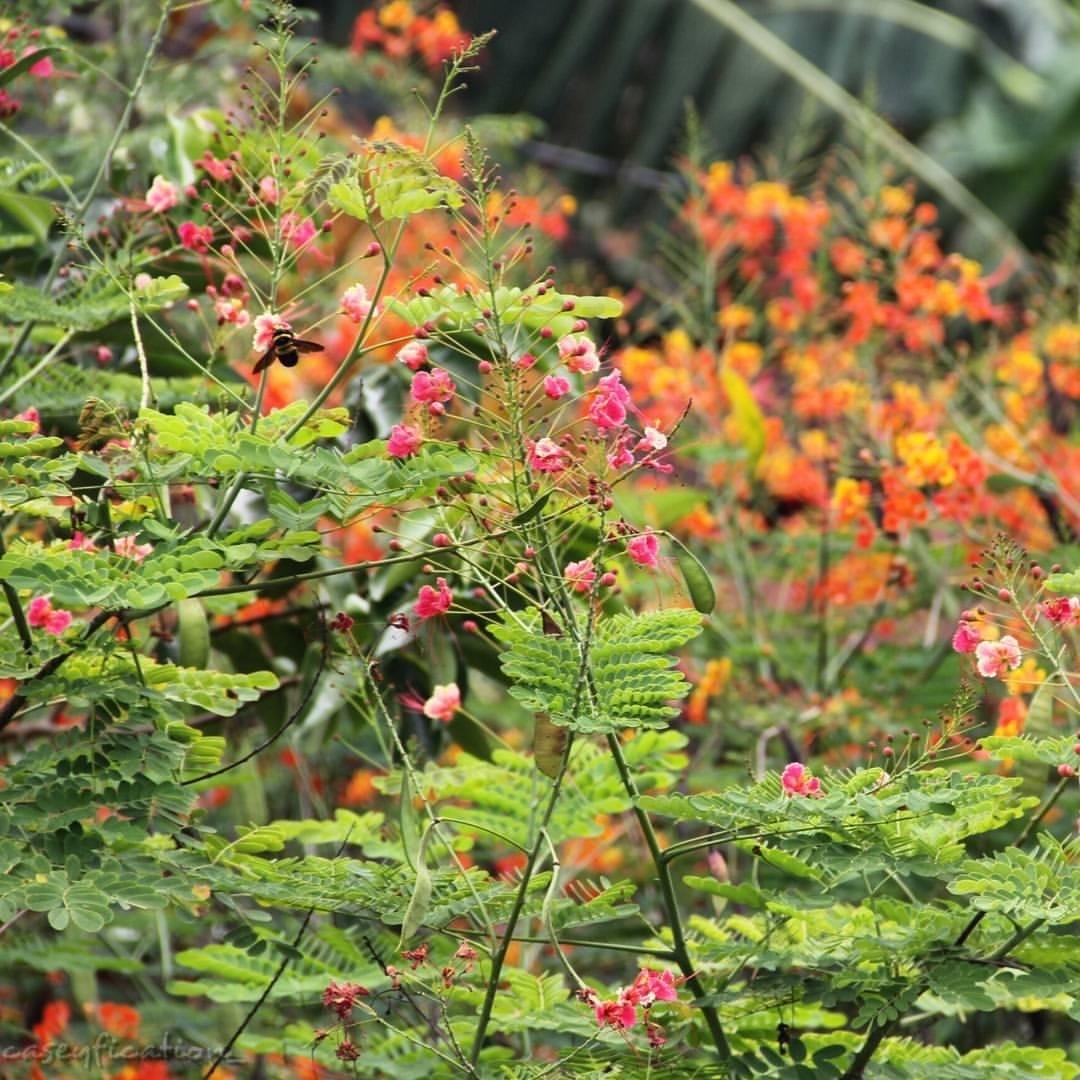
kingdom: Plantae
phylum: Tracheophyta
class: Magnoliopsida
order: Fabales
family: Fabaceae
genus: Caesalpinia
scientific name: Caesalpinia pulcherrima
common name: Pride-of-barbados
